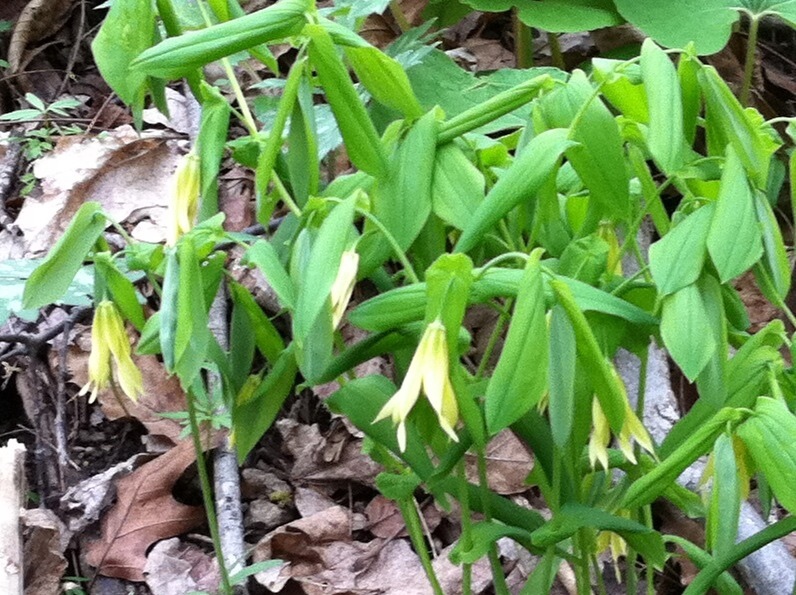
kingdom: Plantae
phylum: Tracheophyta
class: Liliopsida
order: Liliales
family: Colchicaceae
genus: Uvularia
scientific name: Uvularia grandiflora
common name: Bellwort
